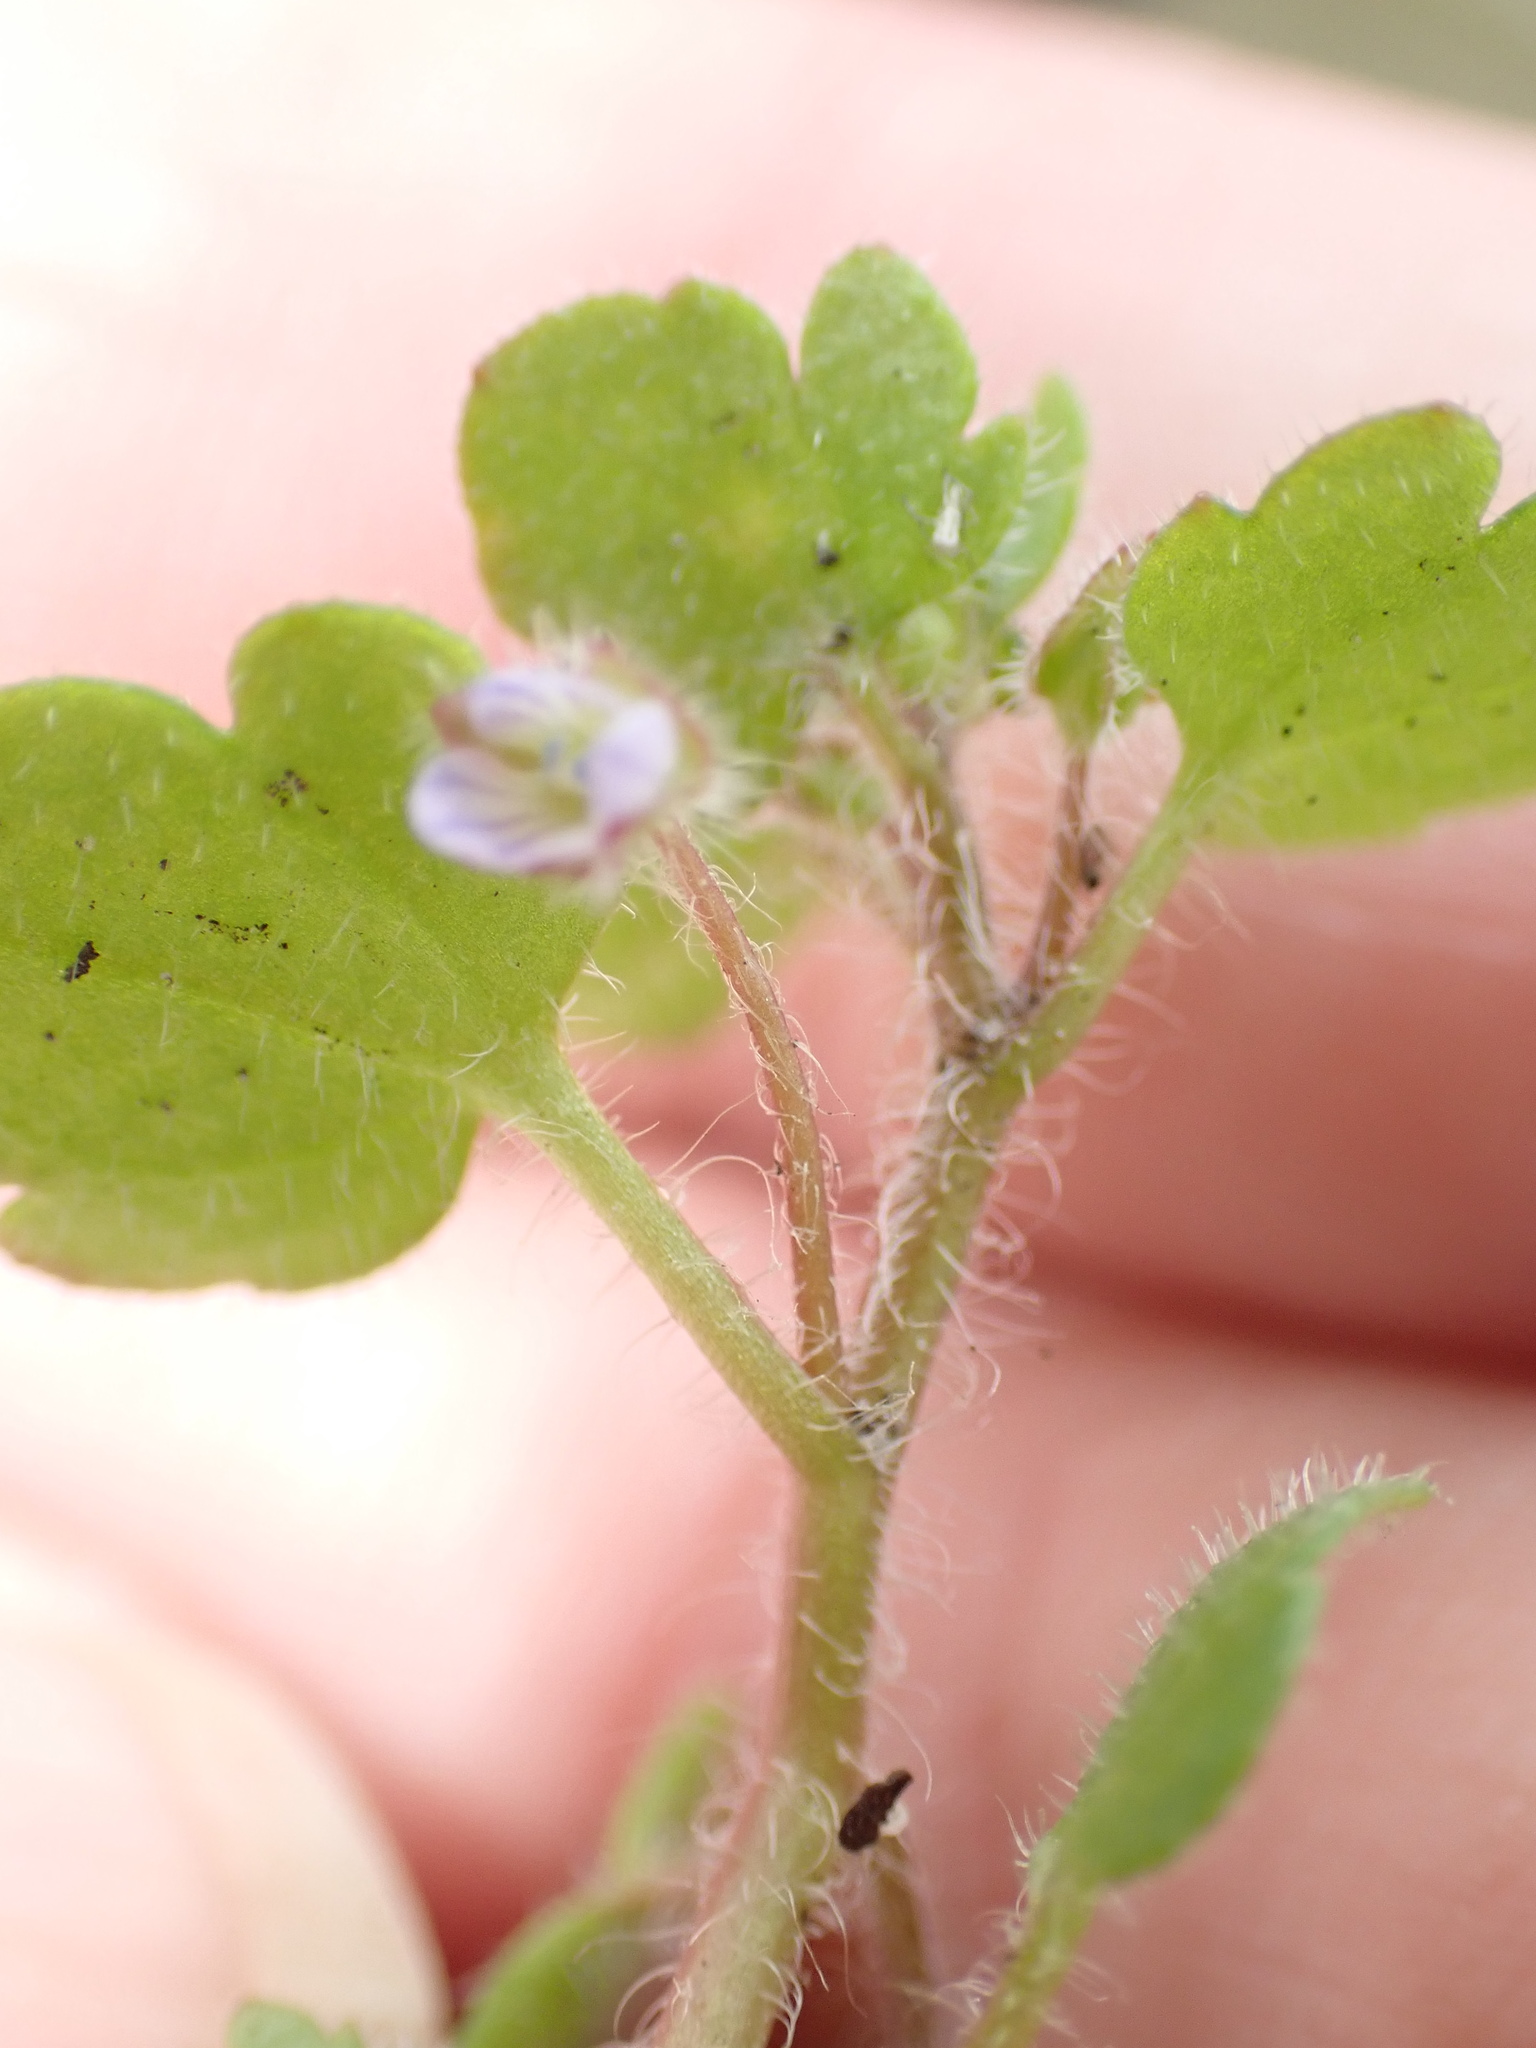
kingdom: Plantae
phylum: Tracheophyta
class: Magnoliopsida
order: Lamiales
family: Plantaginaceae
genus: Veronica
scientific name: Veronica sublobata
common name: False ivy-leaved speedwell
